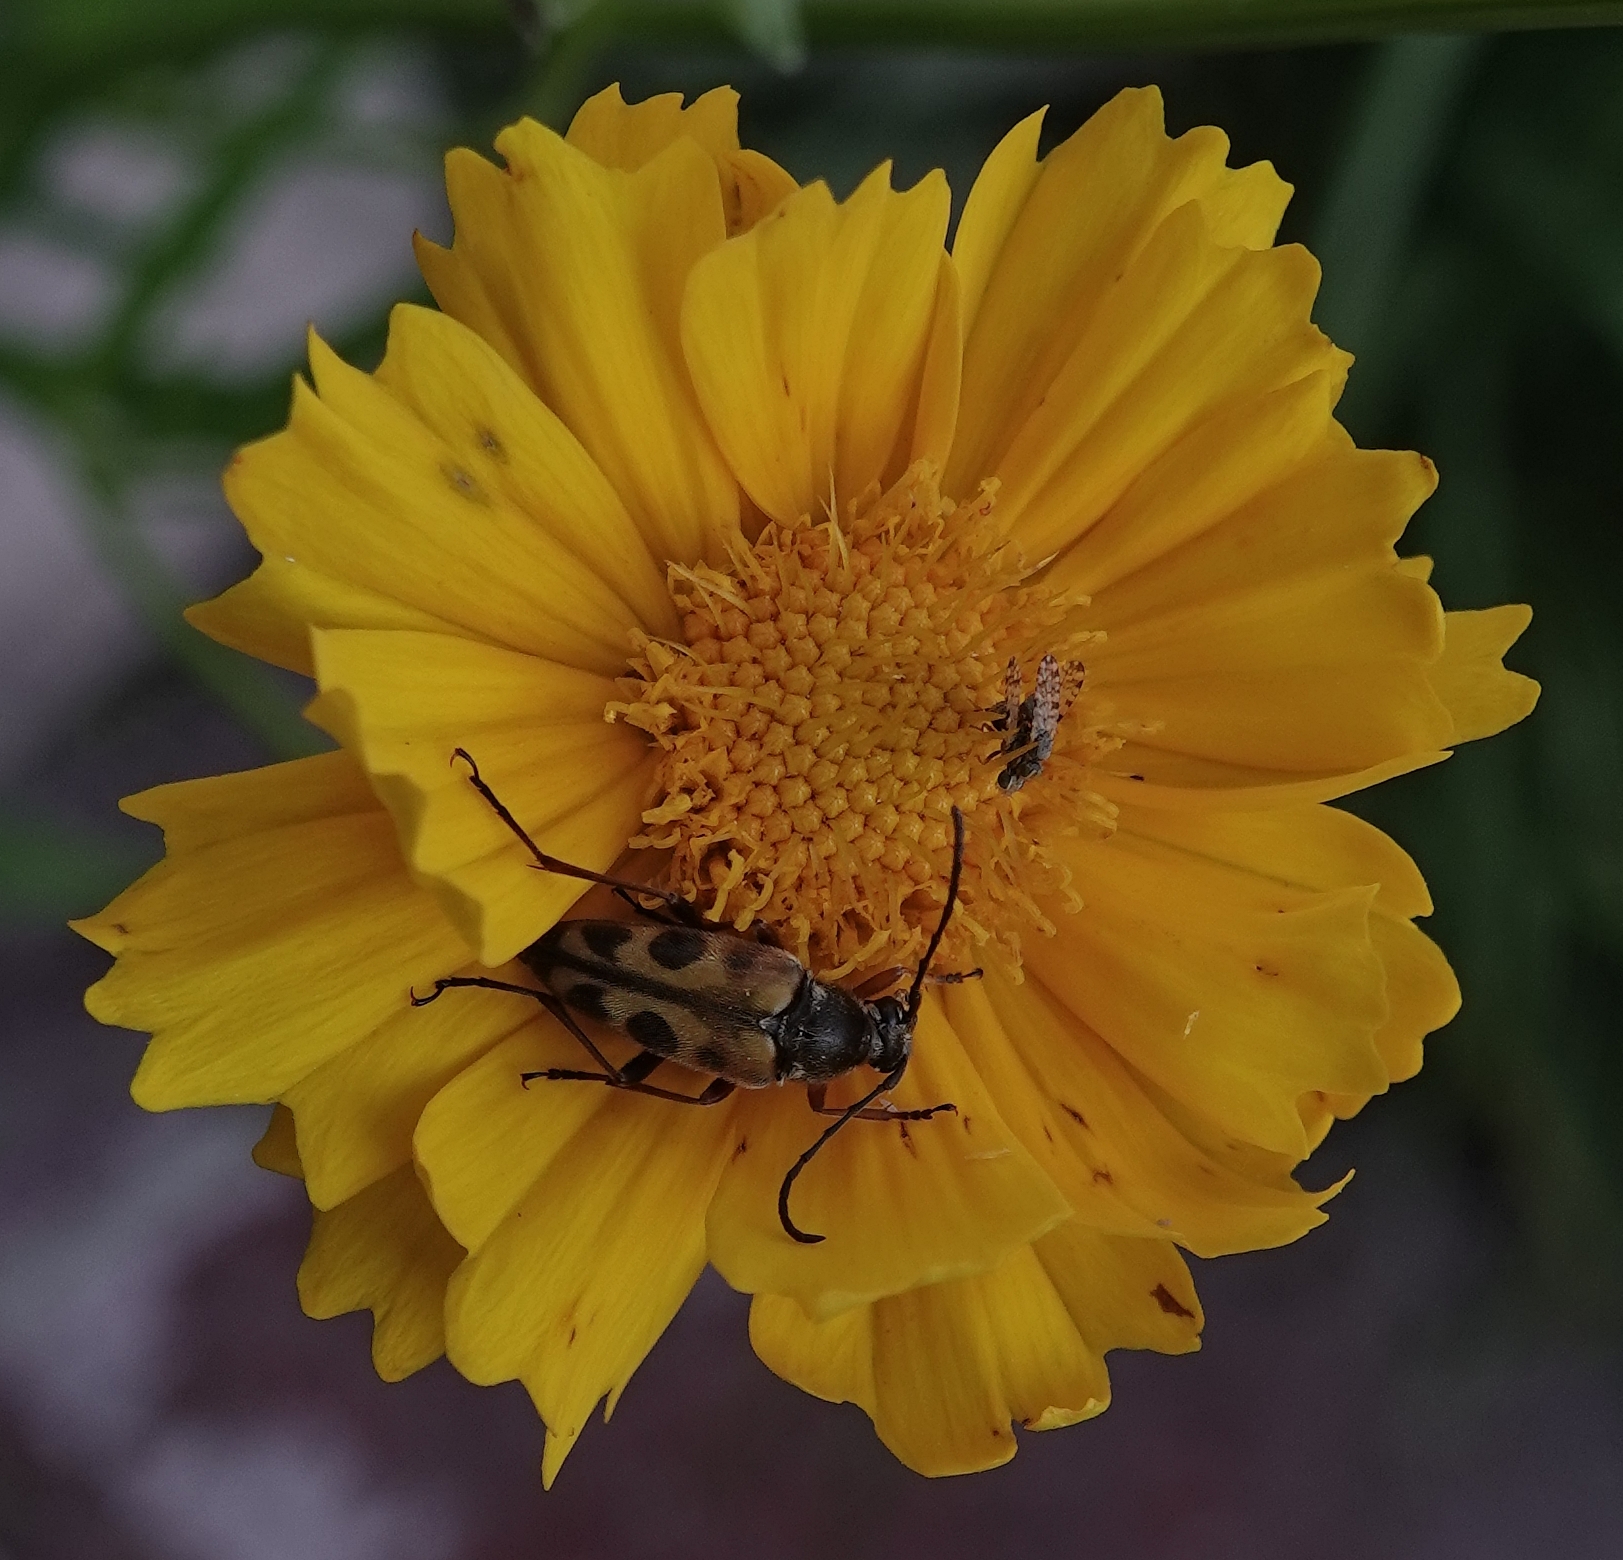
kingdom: Animalia
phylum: Arthropoda
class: Insecta
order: Coleoptera
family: Cerambycidae
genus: Typocerus
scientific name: Typocerus octonotatus
